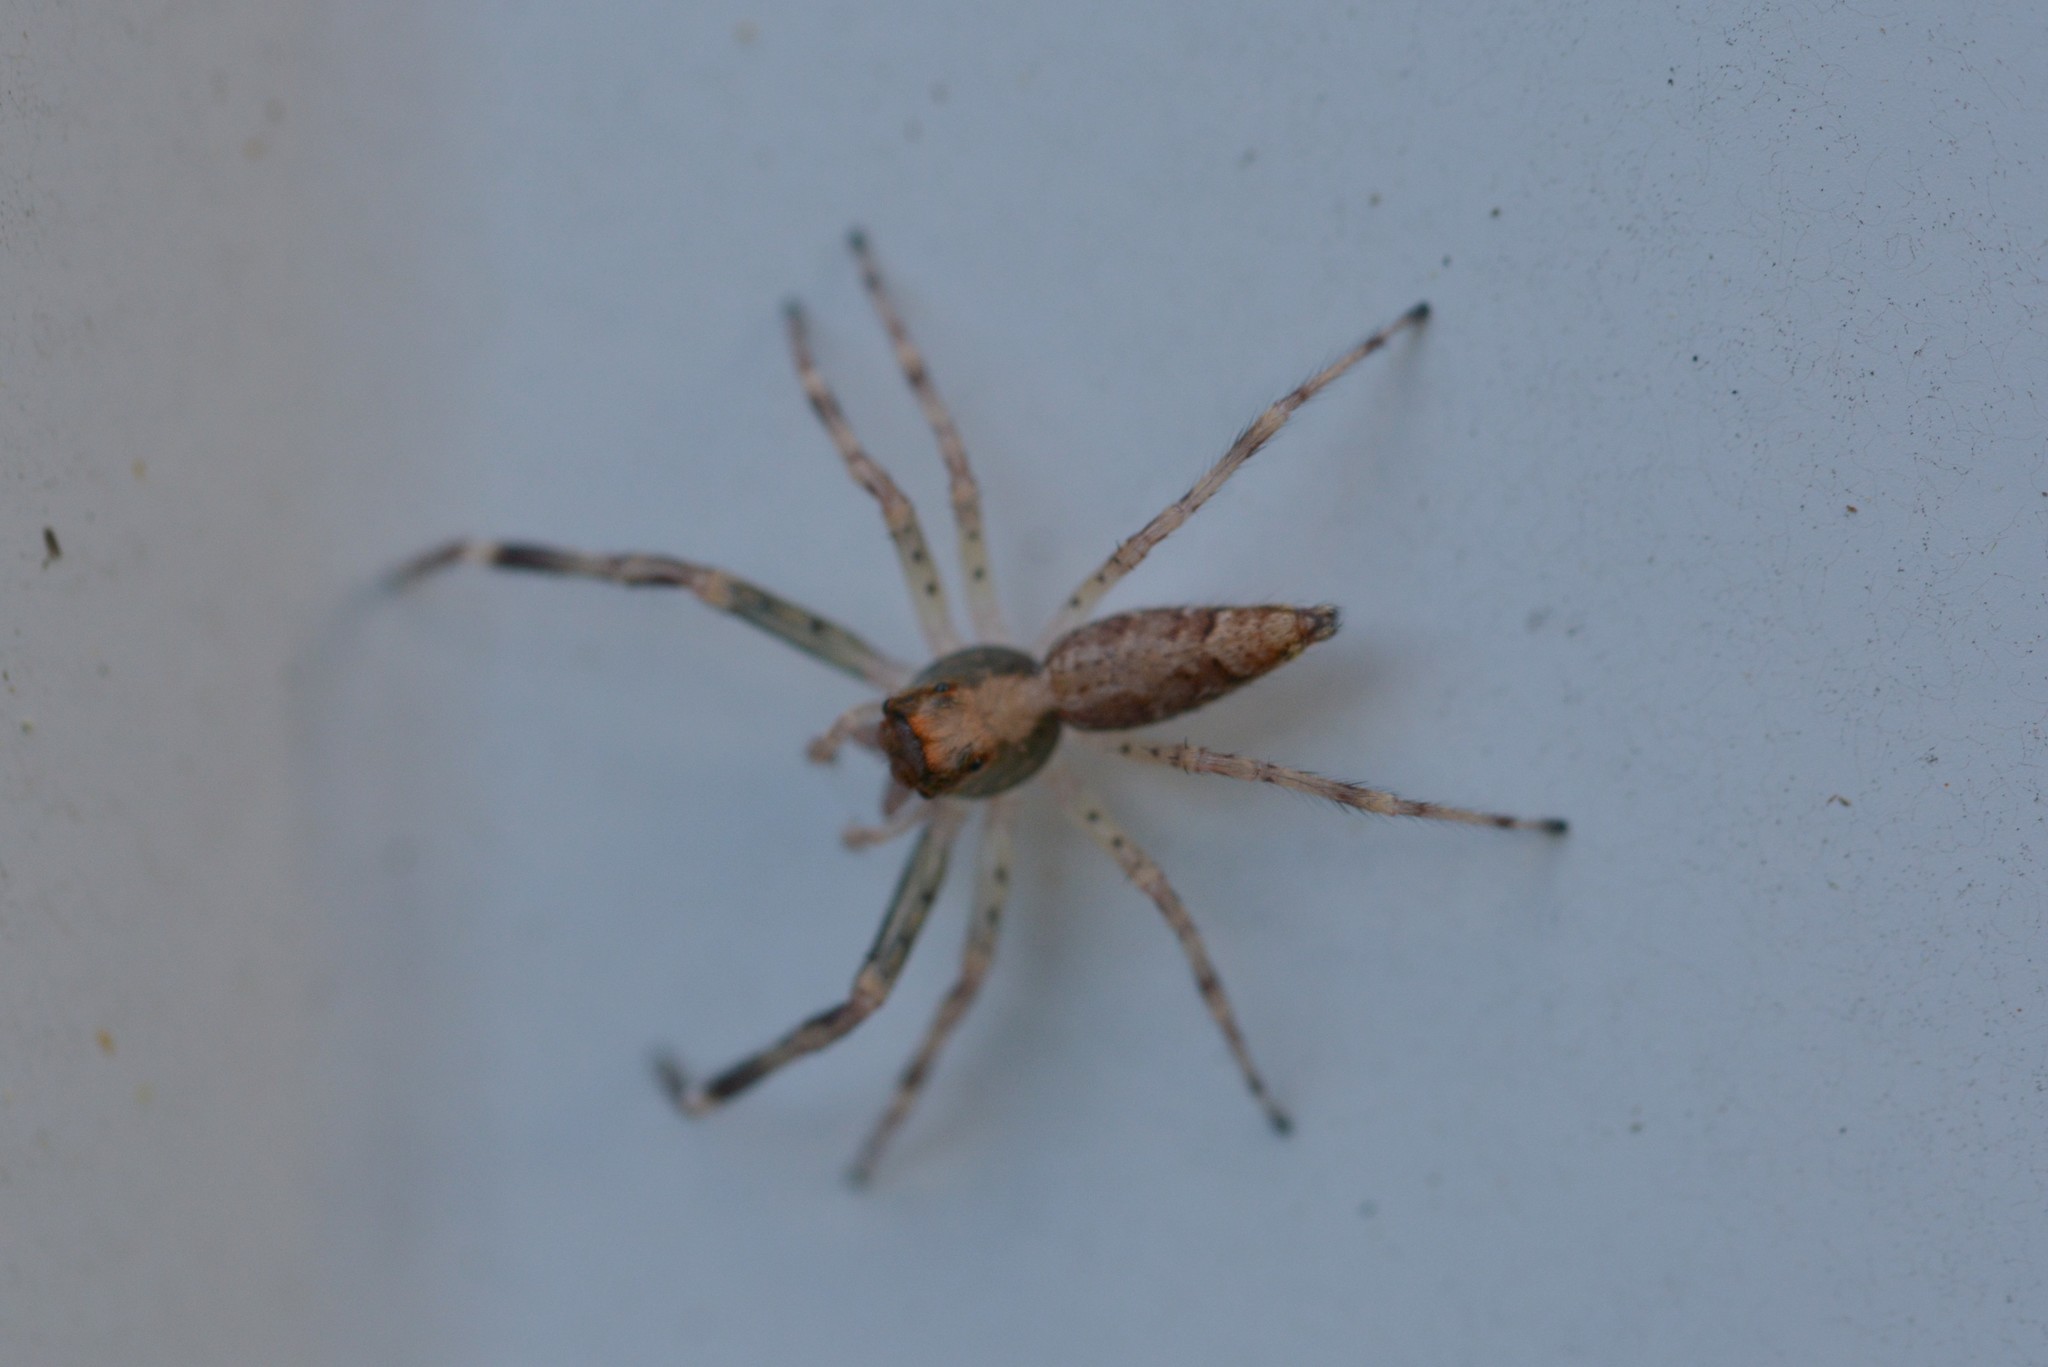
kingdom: Animalia
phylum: Arthropoda
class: Arachnida
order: Araneae
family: Salticidae
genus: Helpis
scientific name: Helpis minitabunda
